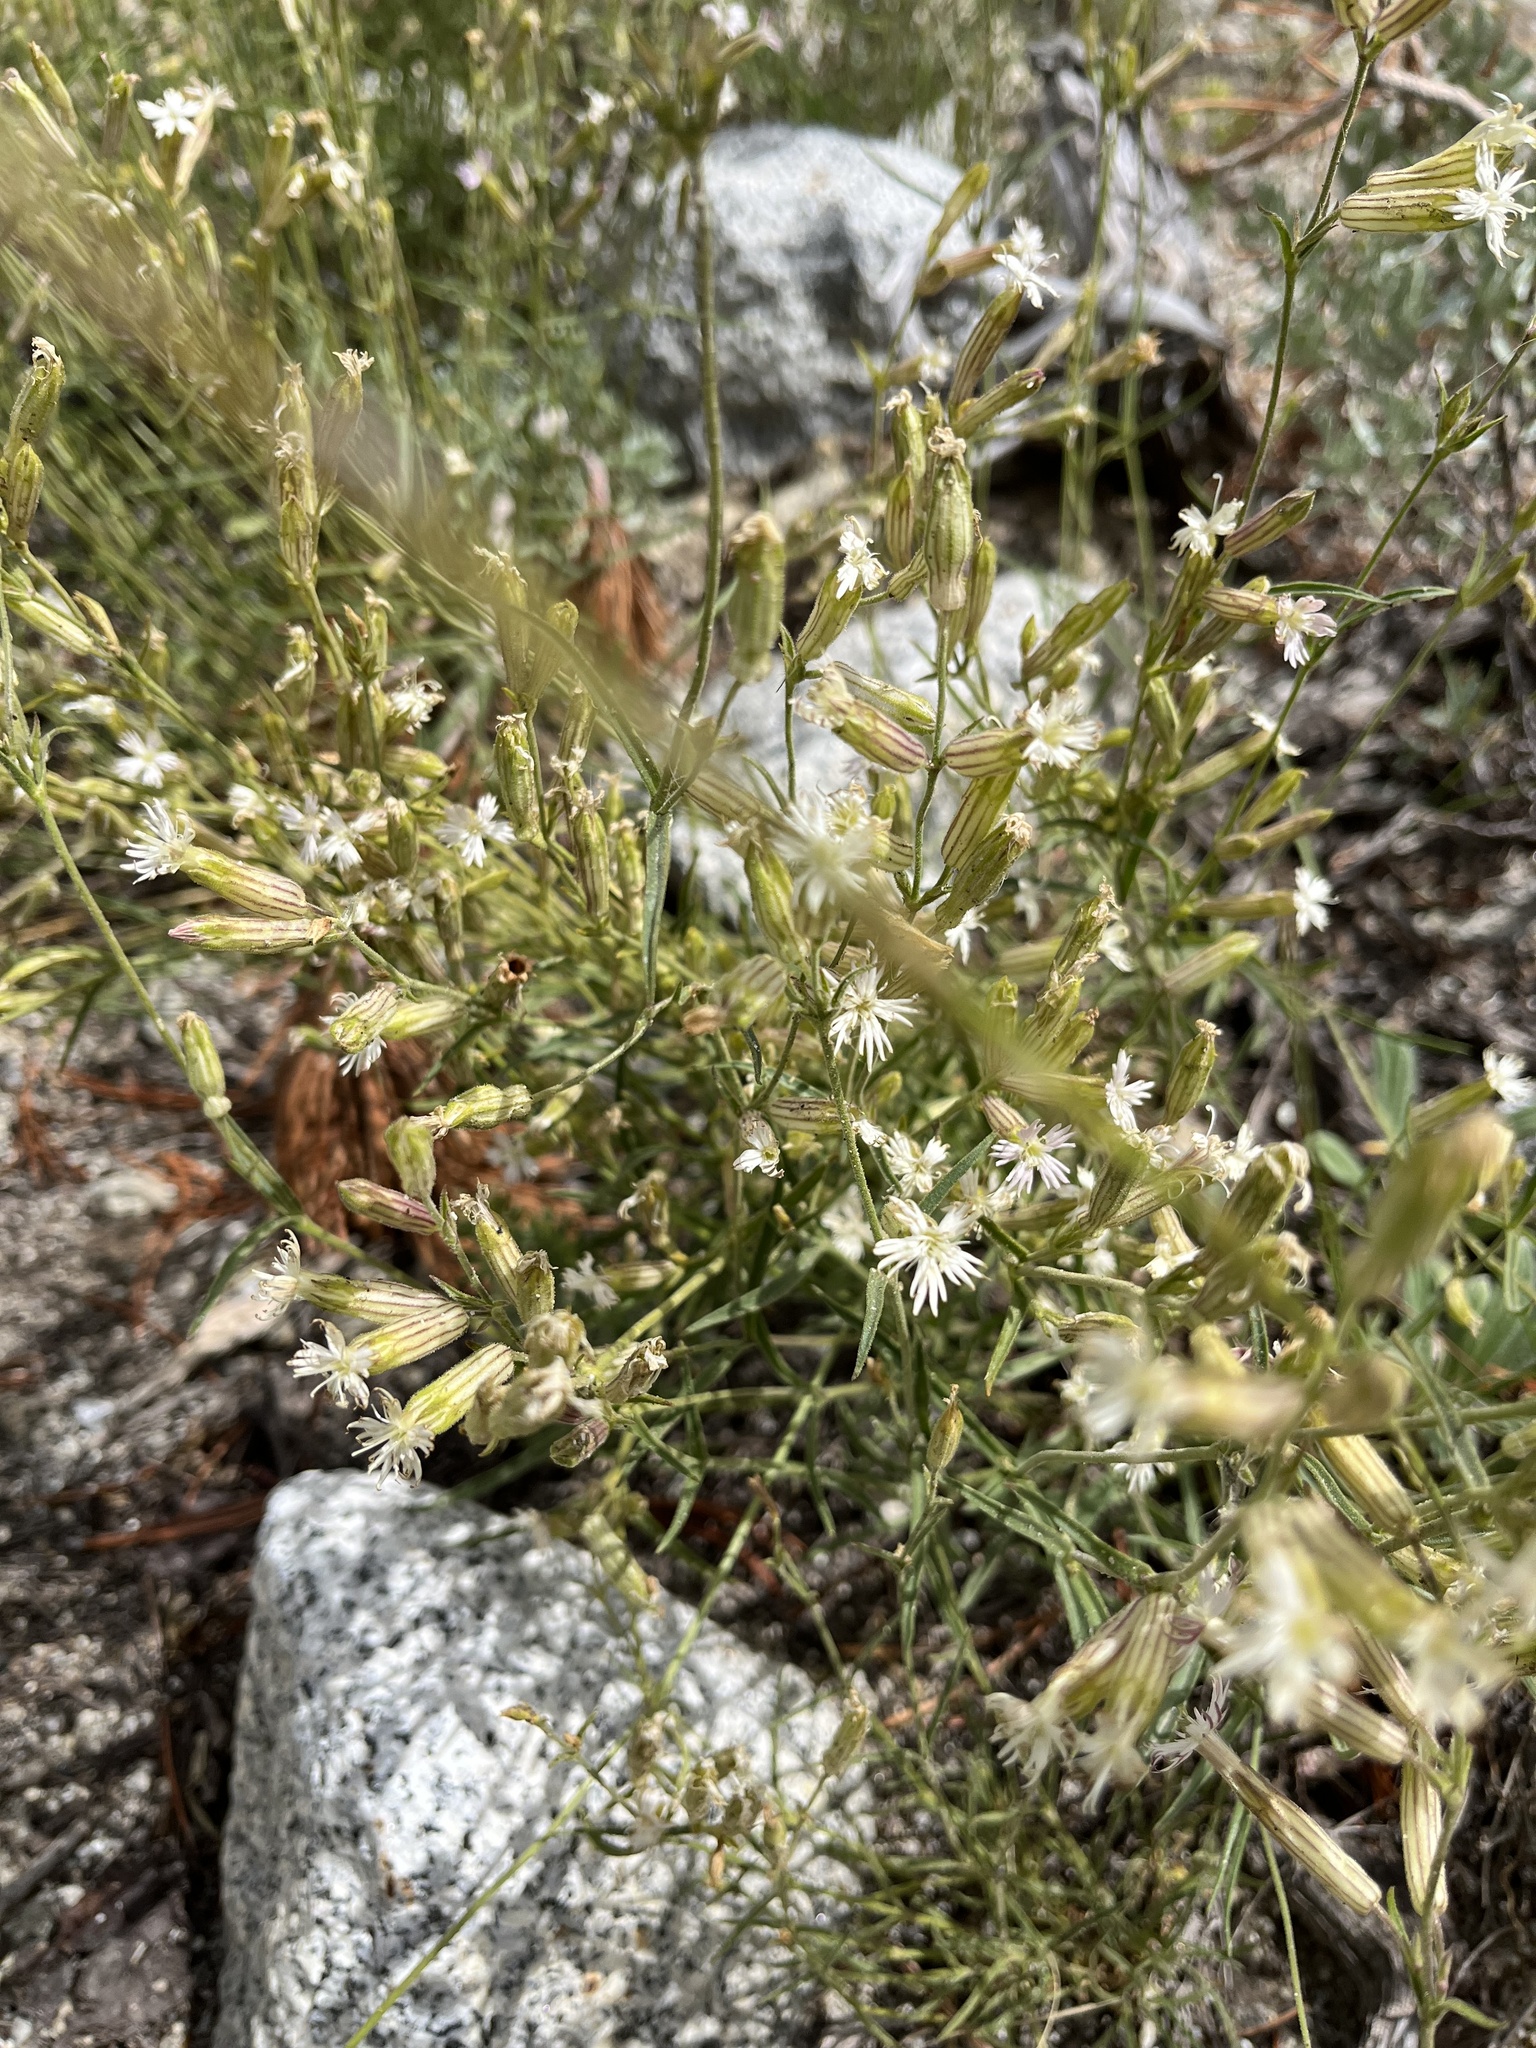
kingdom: Plantae
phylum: Tracheophyta
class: Magnoliopsida
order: Caryophyllales
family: Caryophyllaceae
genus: Silene
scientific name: Silene bernardina
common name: Palmer's catchfly
